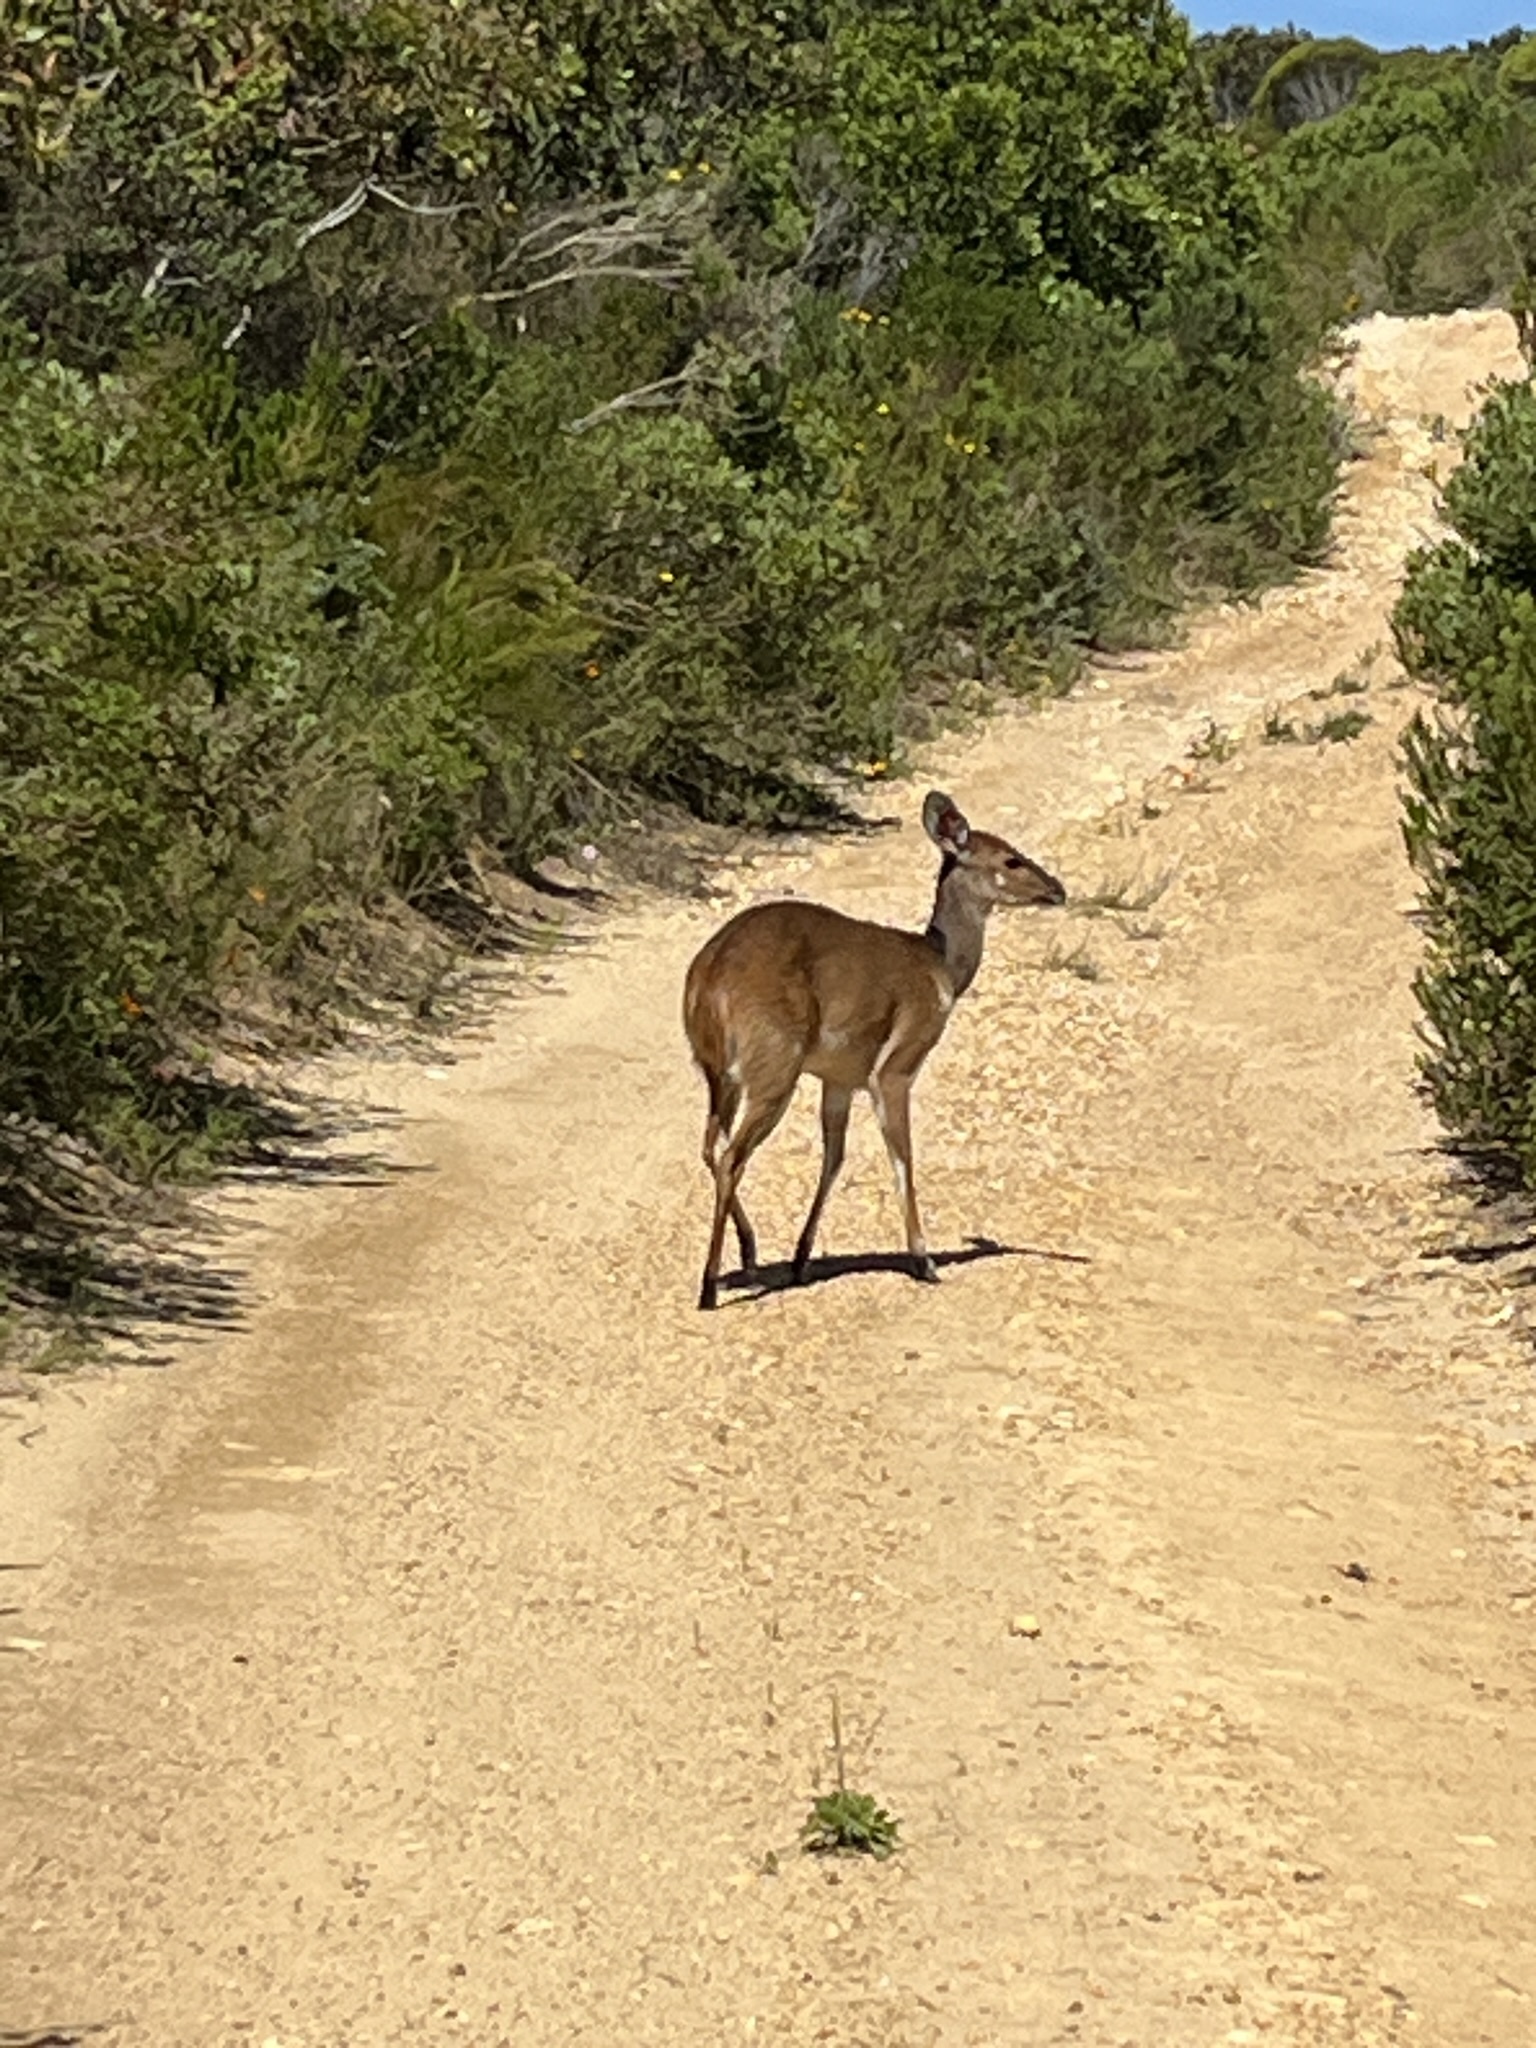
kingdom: Animalia
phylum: Chordata
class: Mammalia
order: Artiodactyla
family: Bovidae
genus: Tragelaphus
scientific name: Tragelaphus scriptus
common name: Bushbuck
